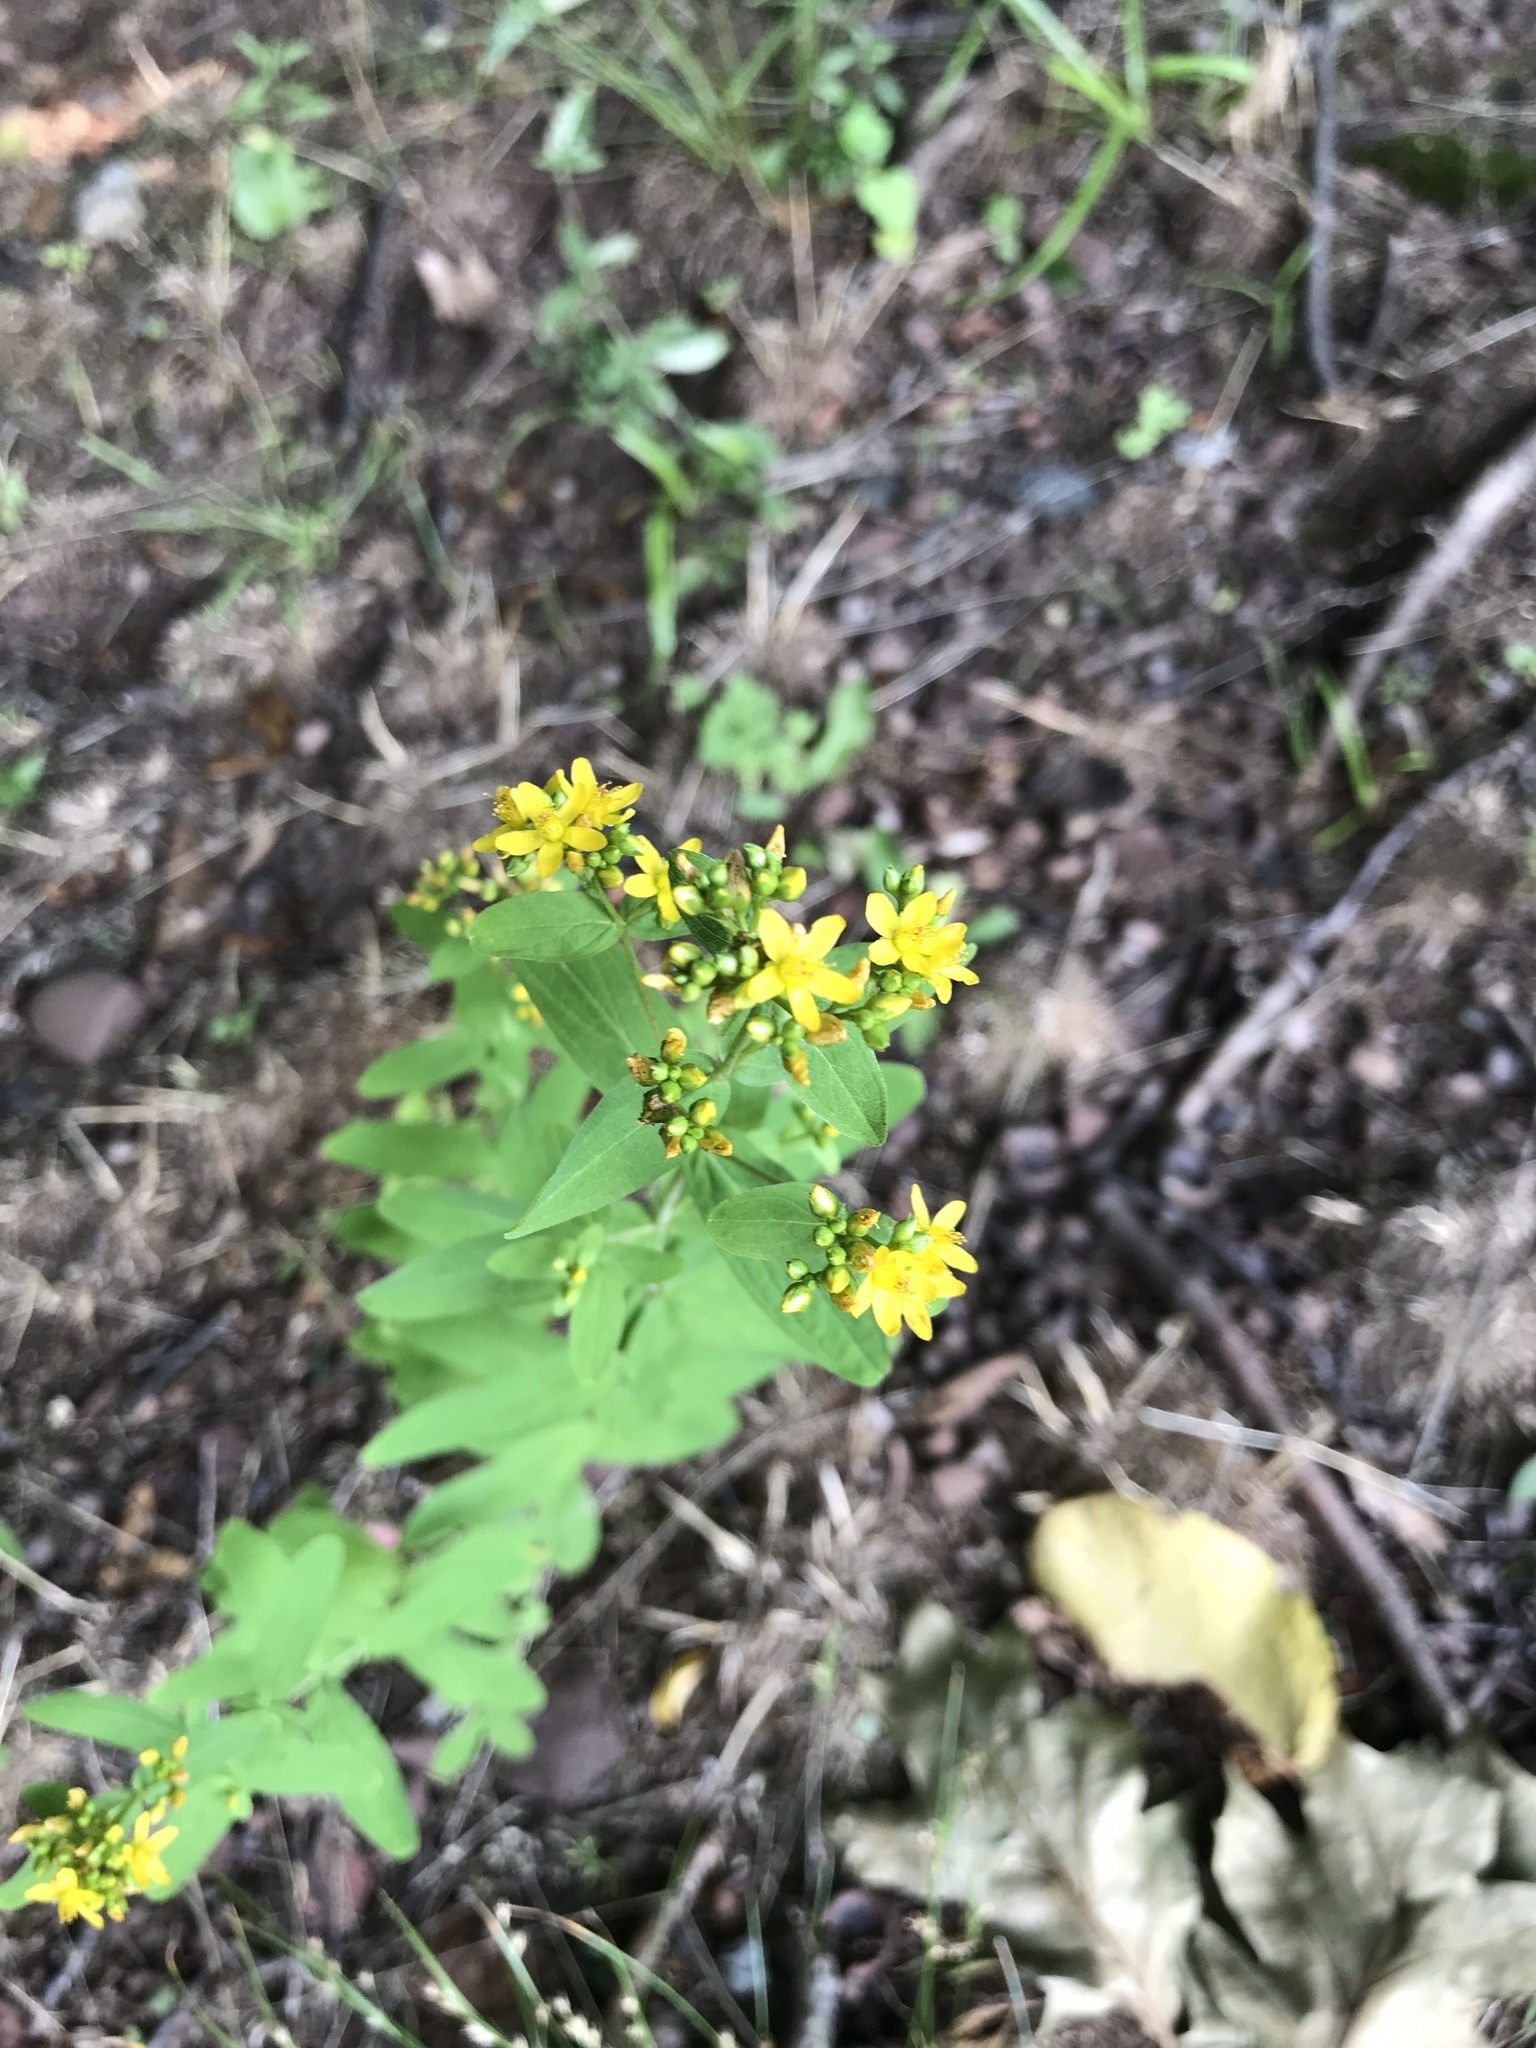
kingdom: Plantae
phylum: Tracheophyta
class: Magnoliopsida
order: Malpighiales
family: Hypericaceae
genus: Hypericum
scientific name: Hypericum perforatum
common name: Common st. johnswort
